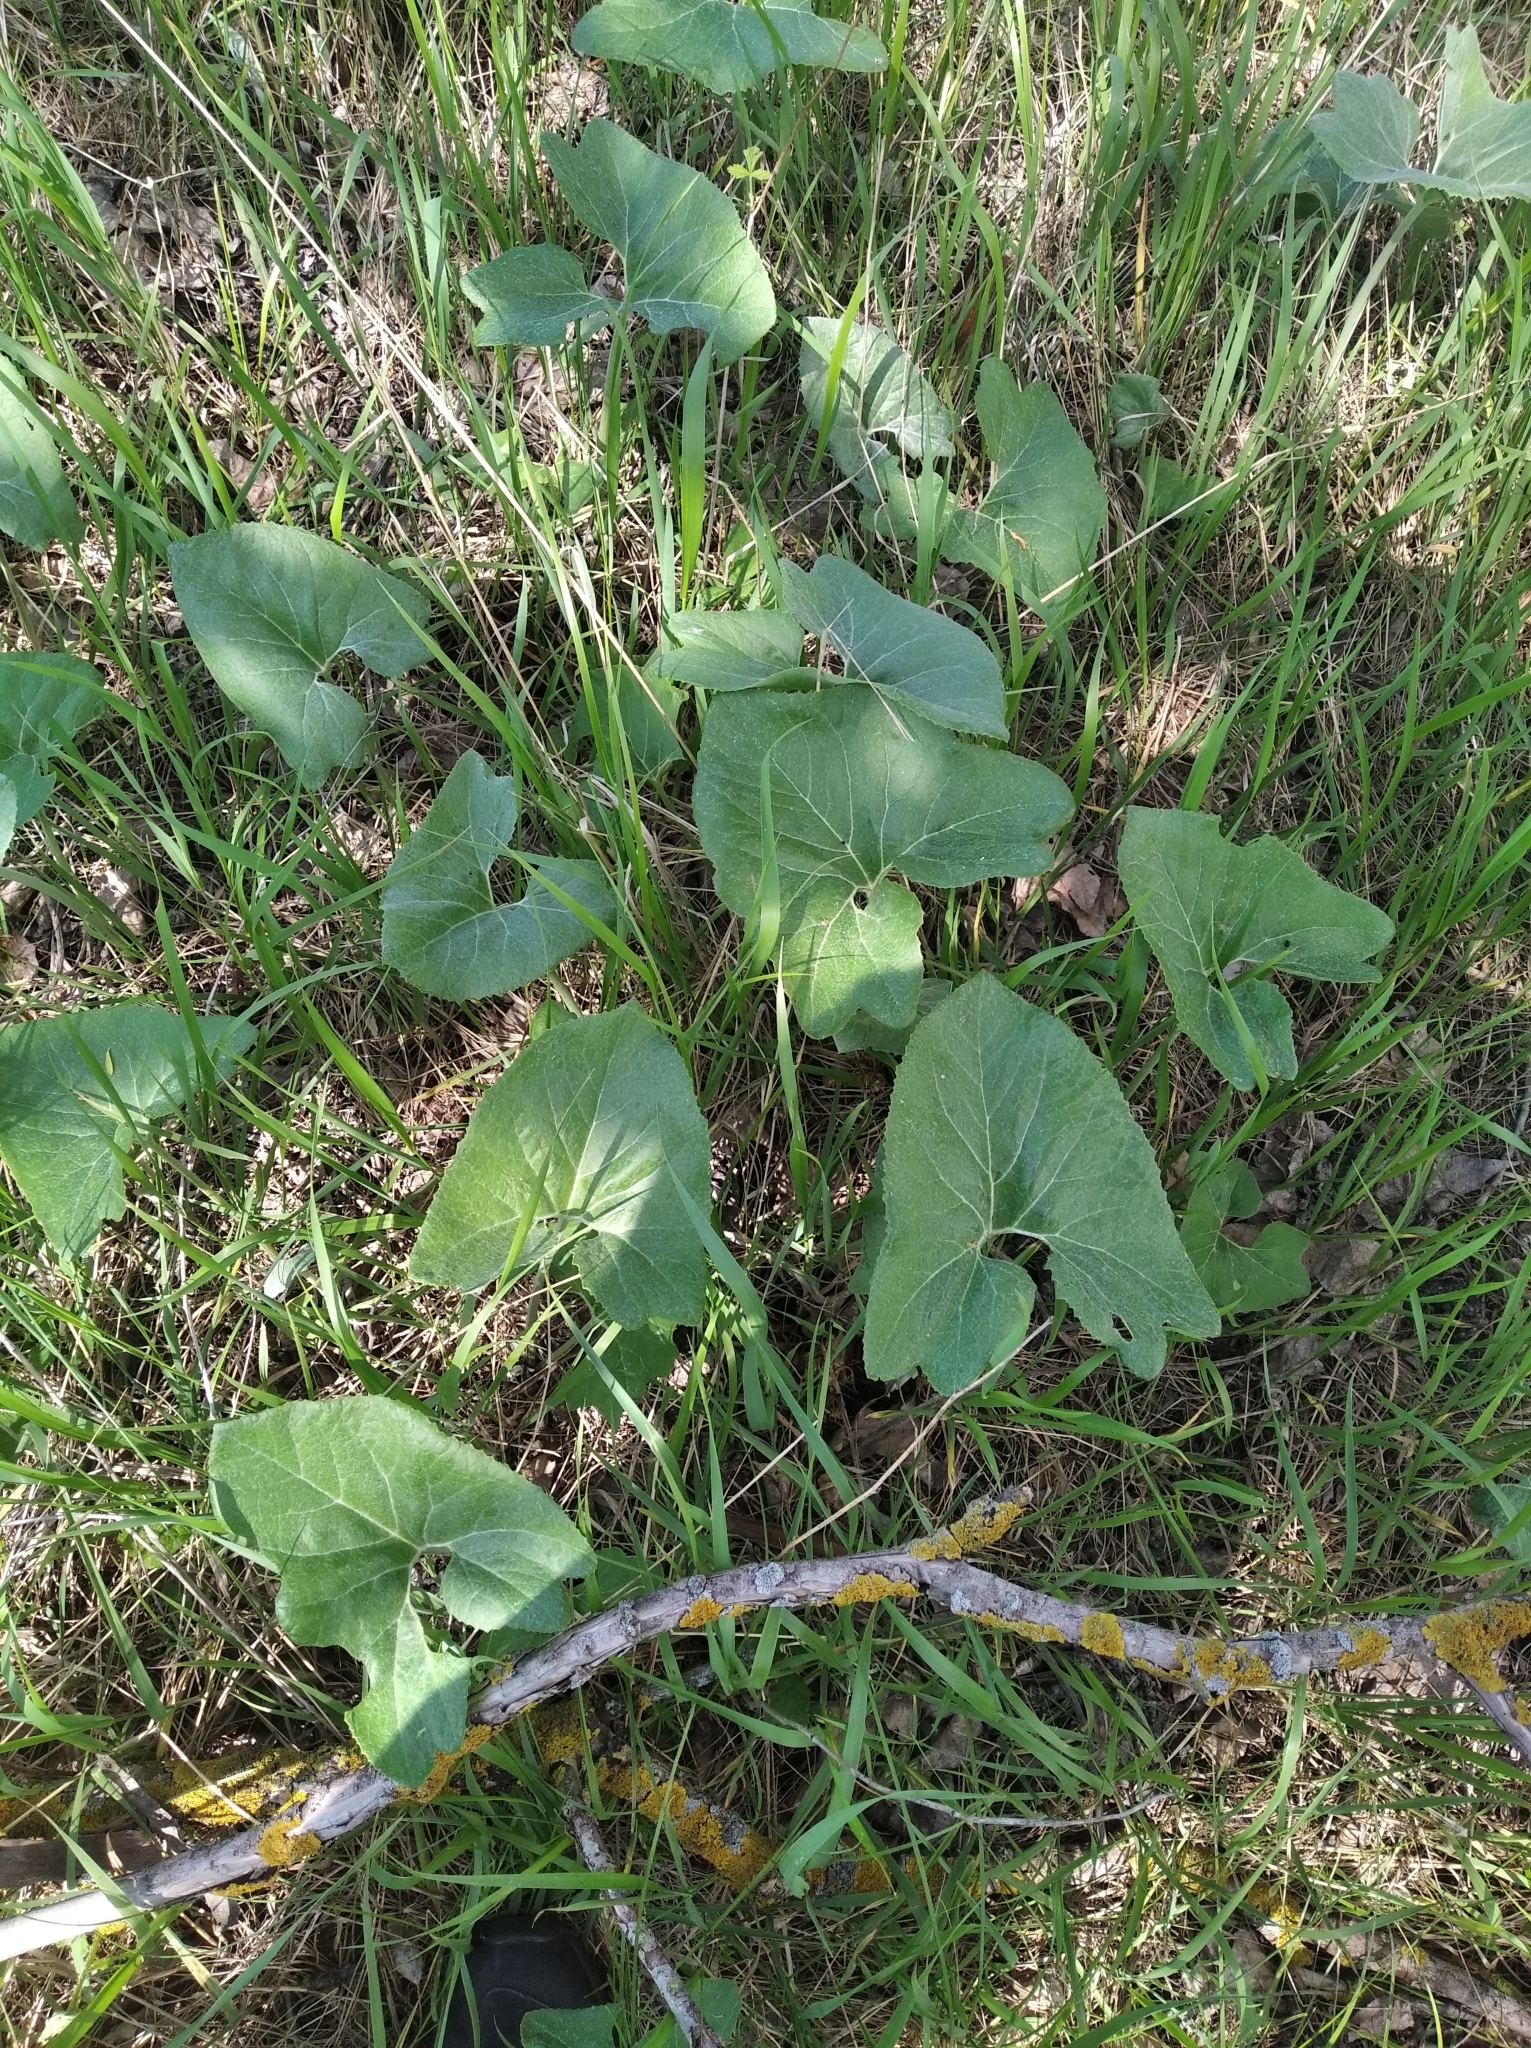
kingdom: Plantae
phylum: Tracheophyta
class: Magnoliopsida
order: Asterales
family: Asteraceae
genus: Petasites
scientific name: Petasites spurius
